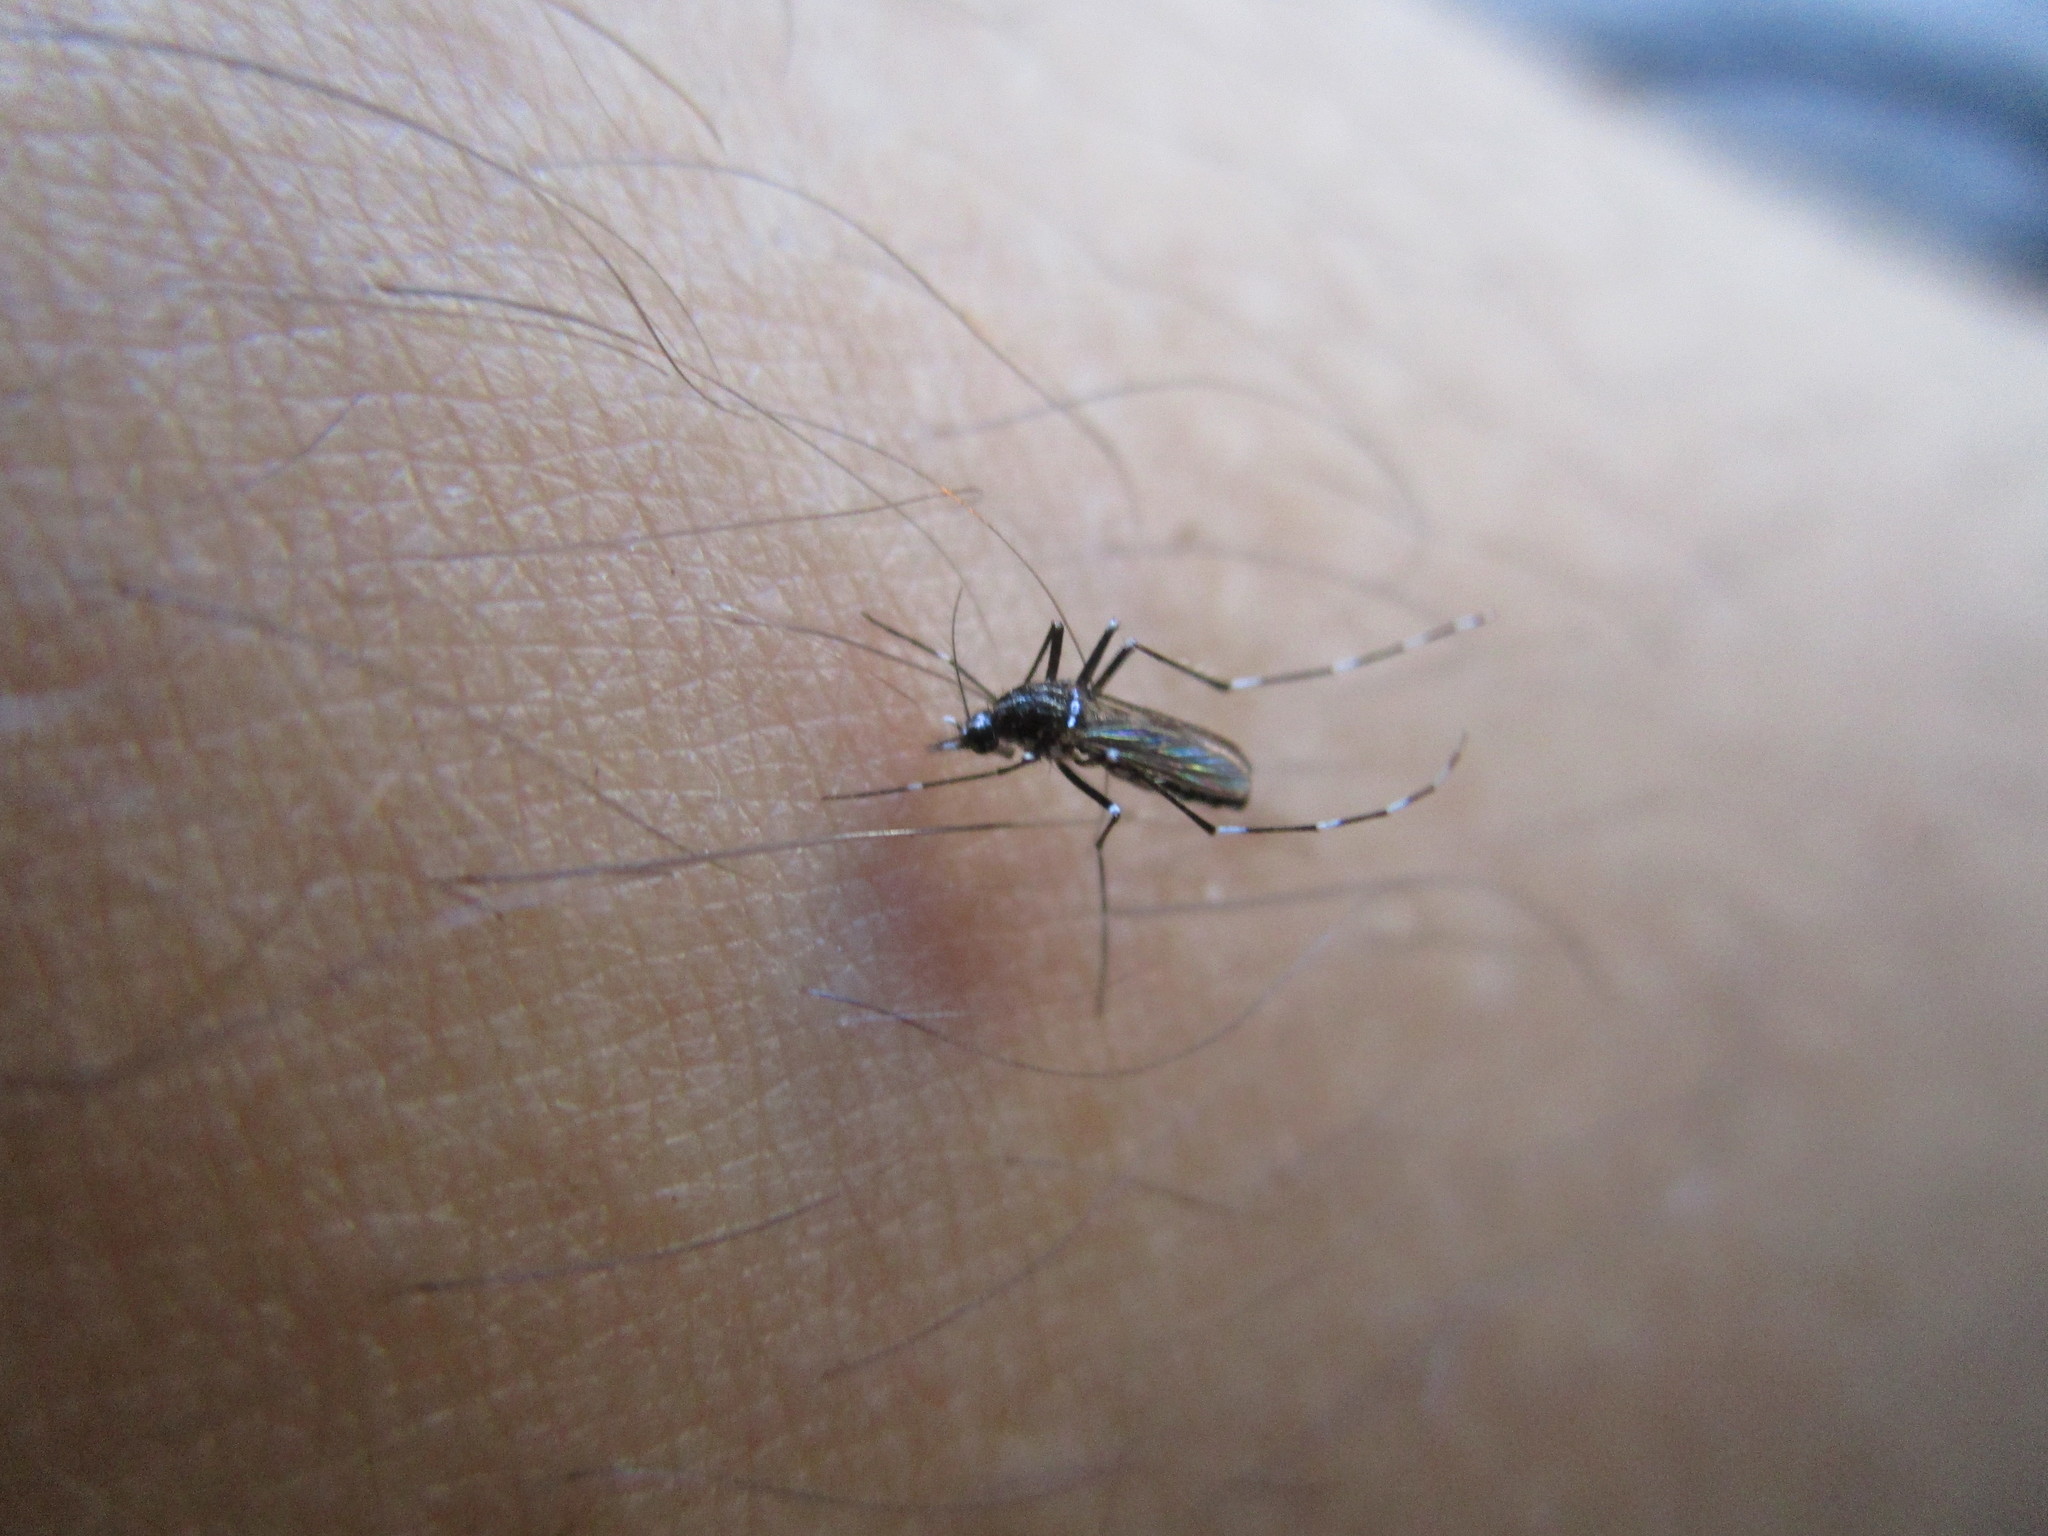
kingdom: Animalia
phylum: Arthropoda
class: Insecta
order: Diptera
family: Culicidae
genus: Aedes
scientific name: Aedes albopictus
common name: Tiger mosquito
